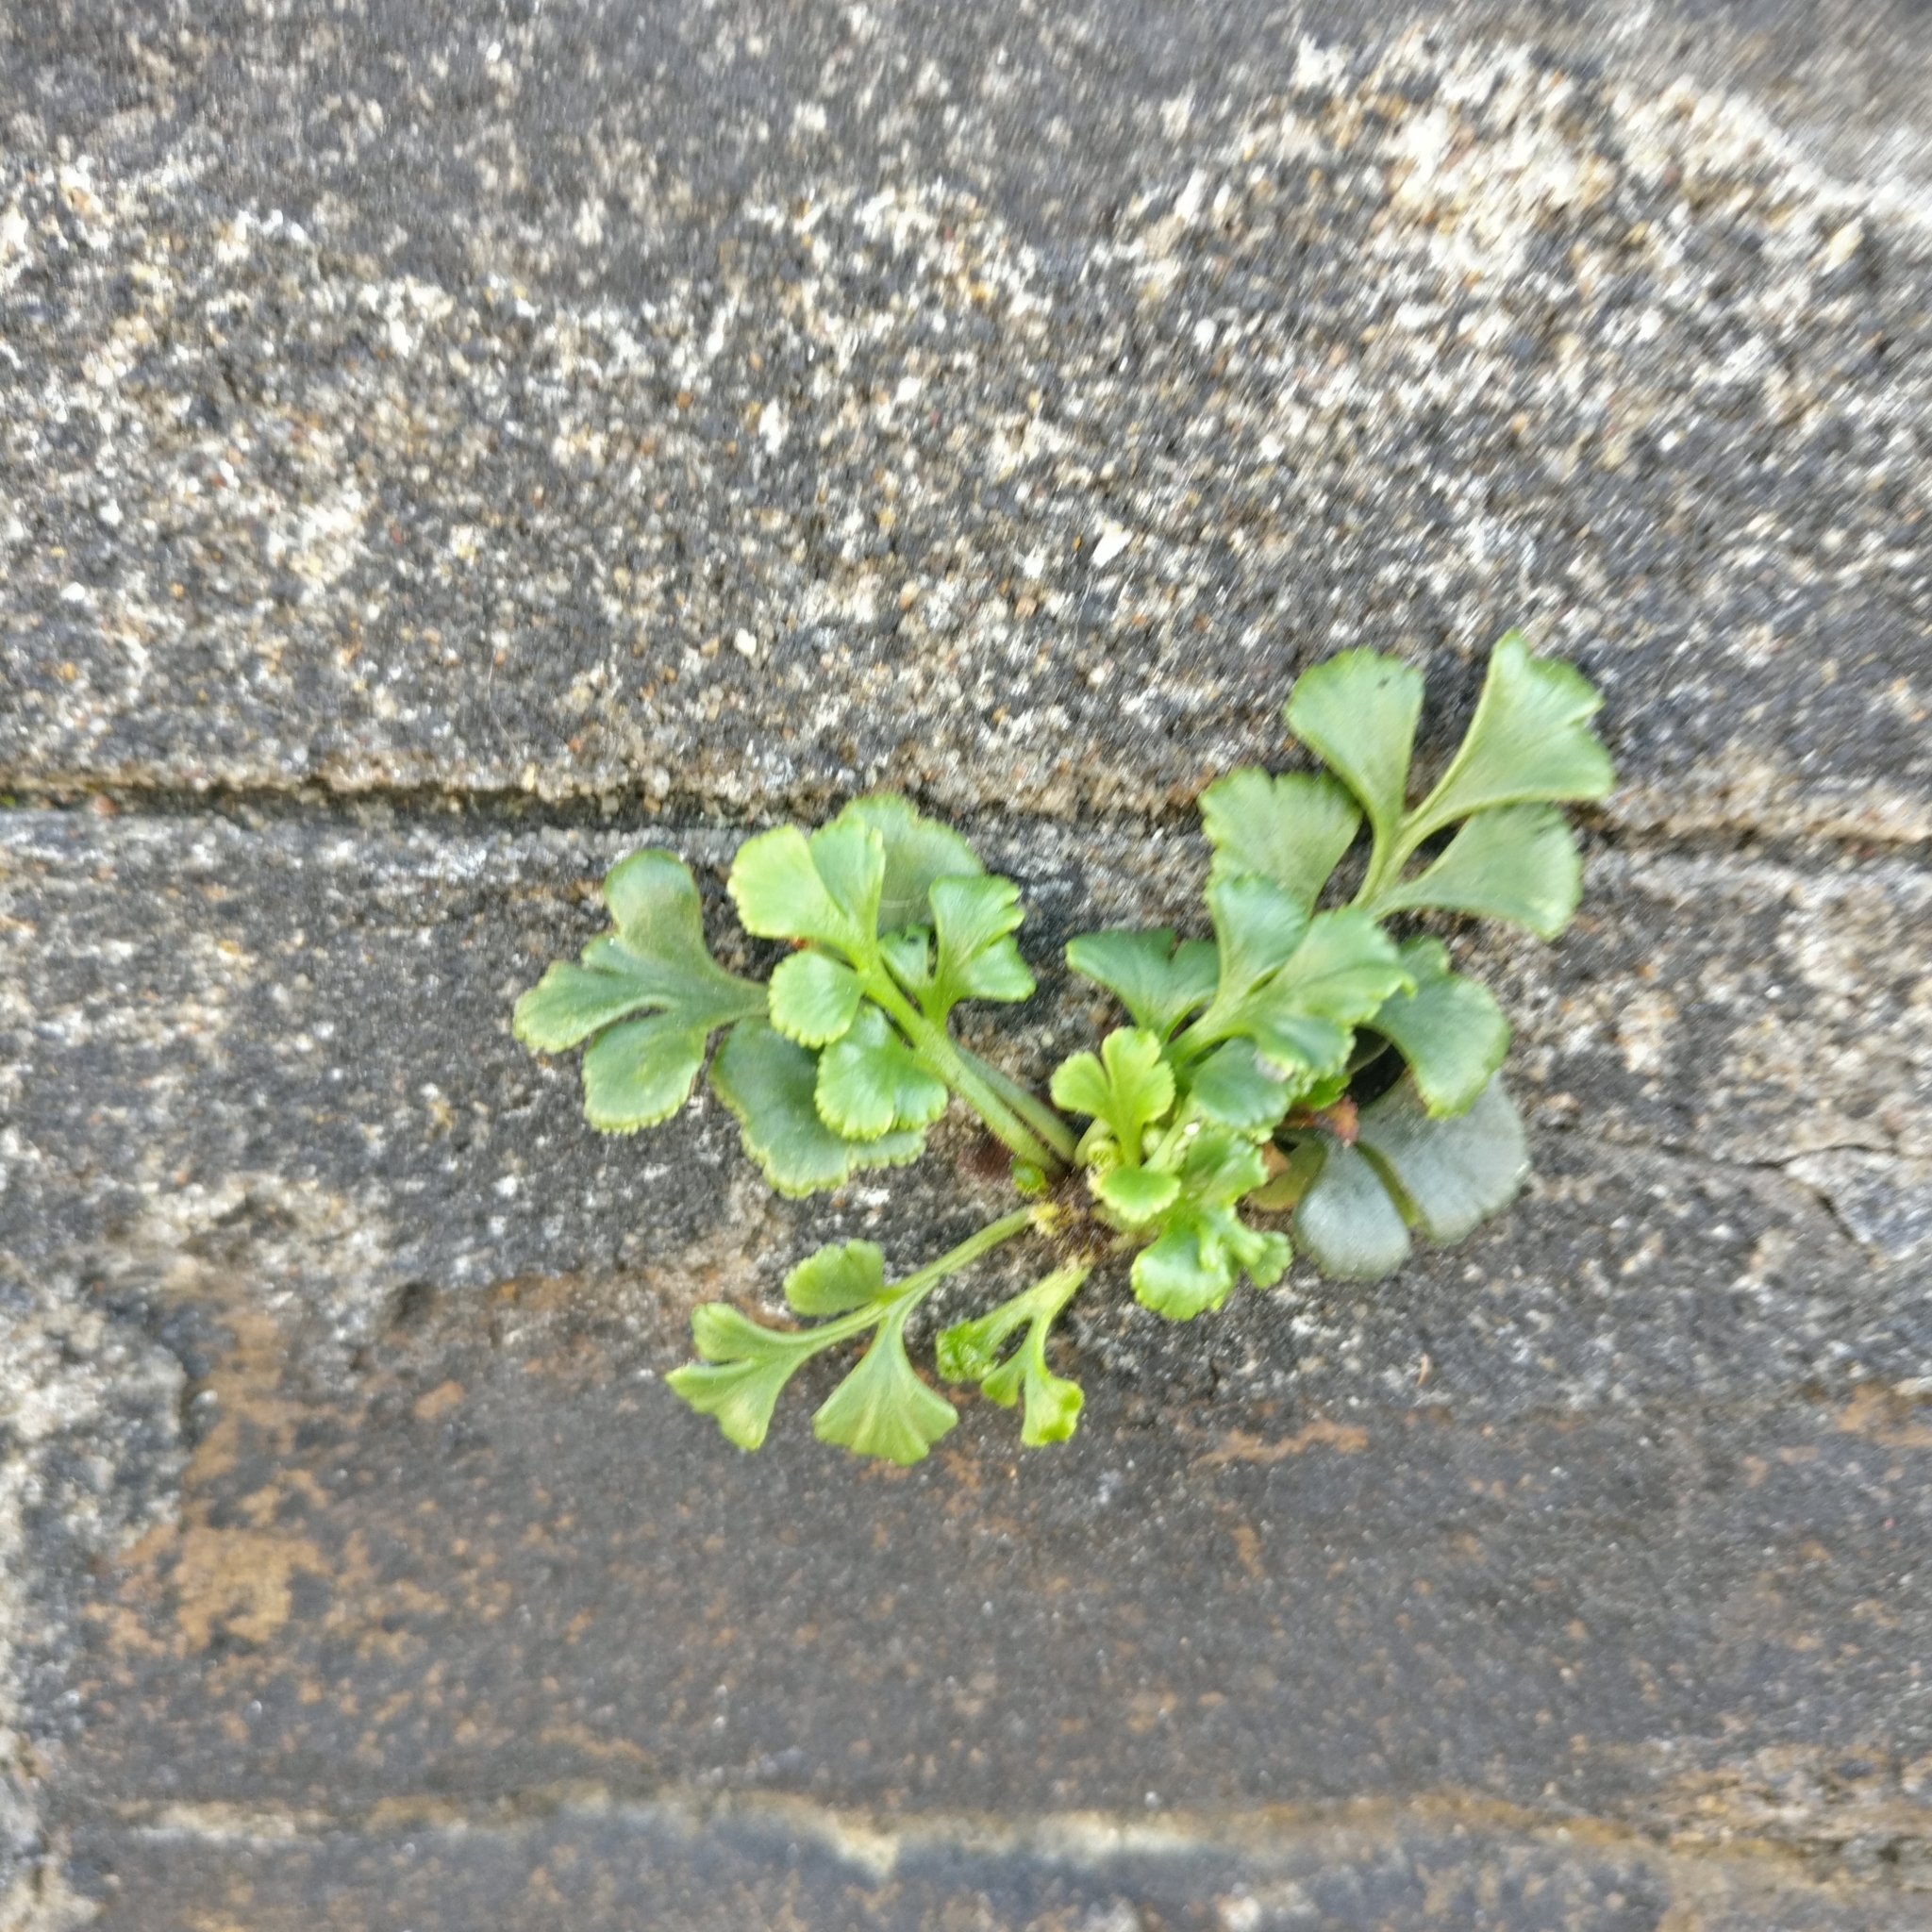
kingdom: Plantae
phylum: Tracheophyta
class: Polypodiopsida
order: Polypodiales
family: Aspleniaceae
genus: Asplenium
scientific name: Asplenium ruta-muraria
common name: Wall-rue
